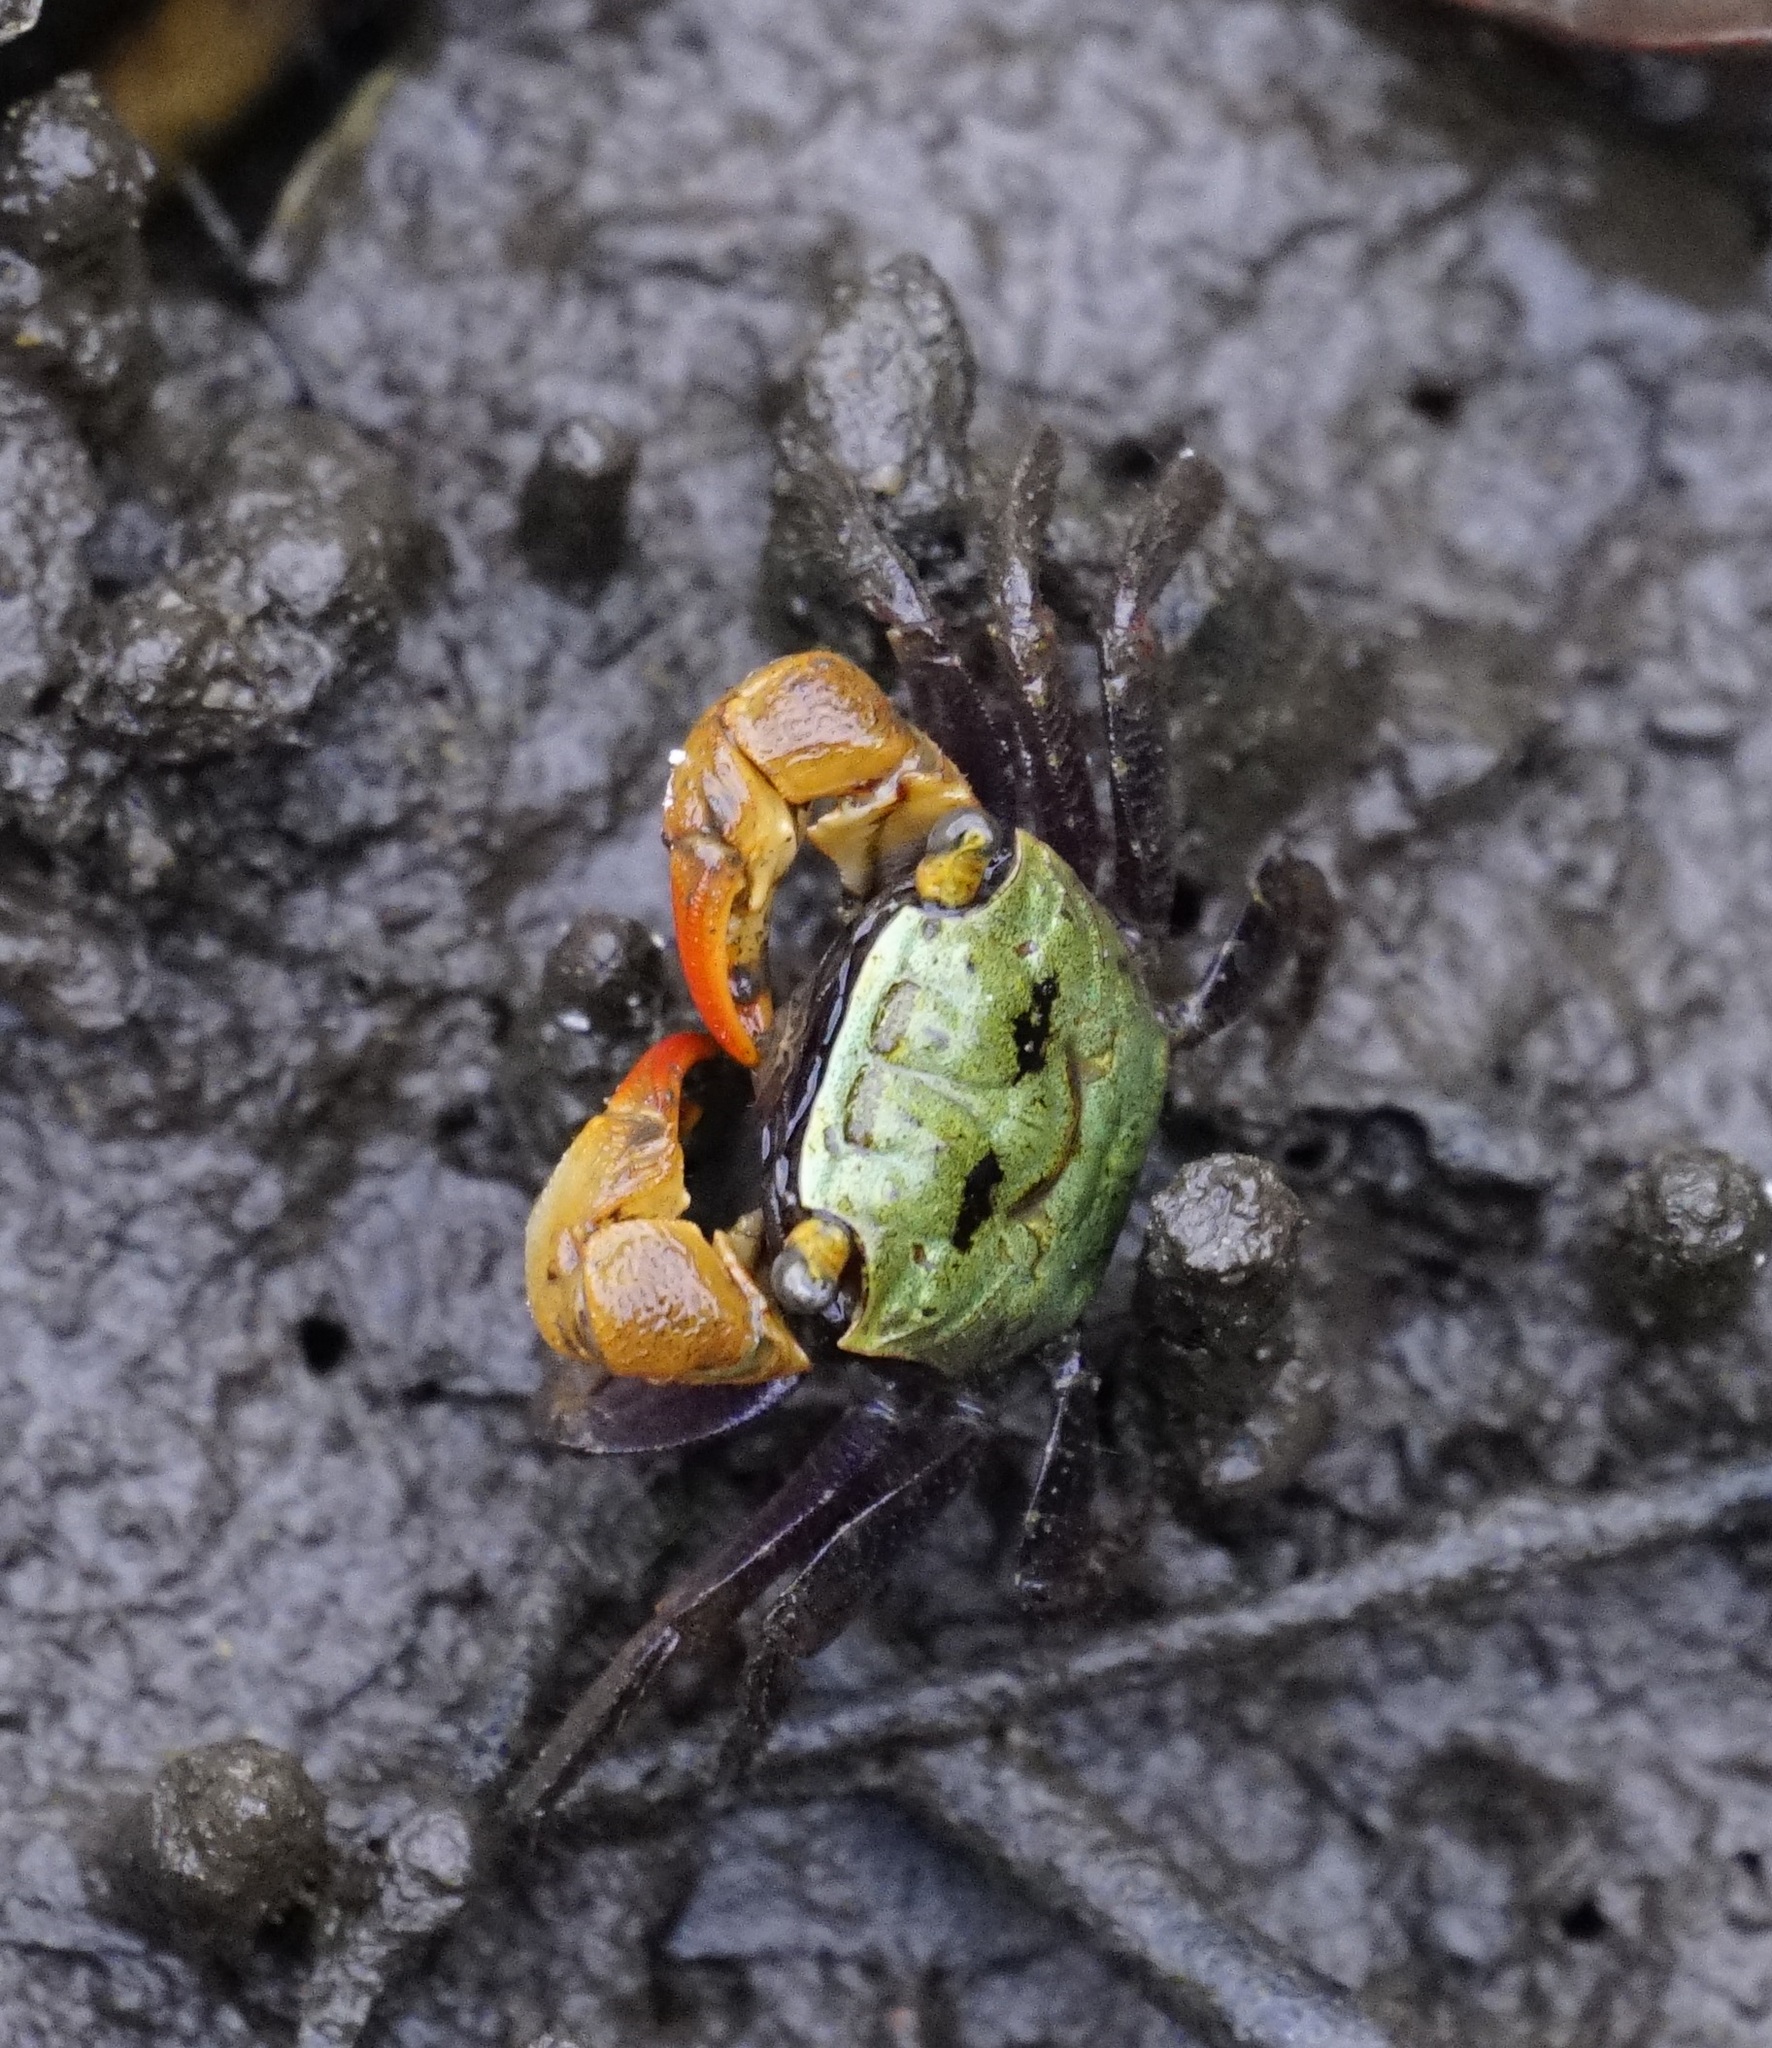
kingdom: Animalia
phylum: Arthropoda
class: Malacostraca
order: Decapoda
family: Sesarmidae
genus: Parasesarma
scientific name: Parasesarma erythodactylum
